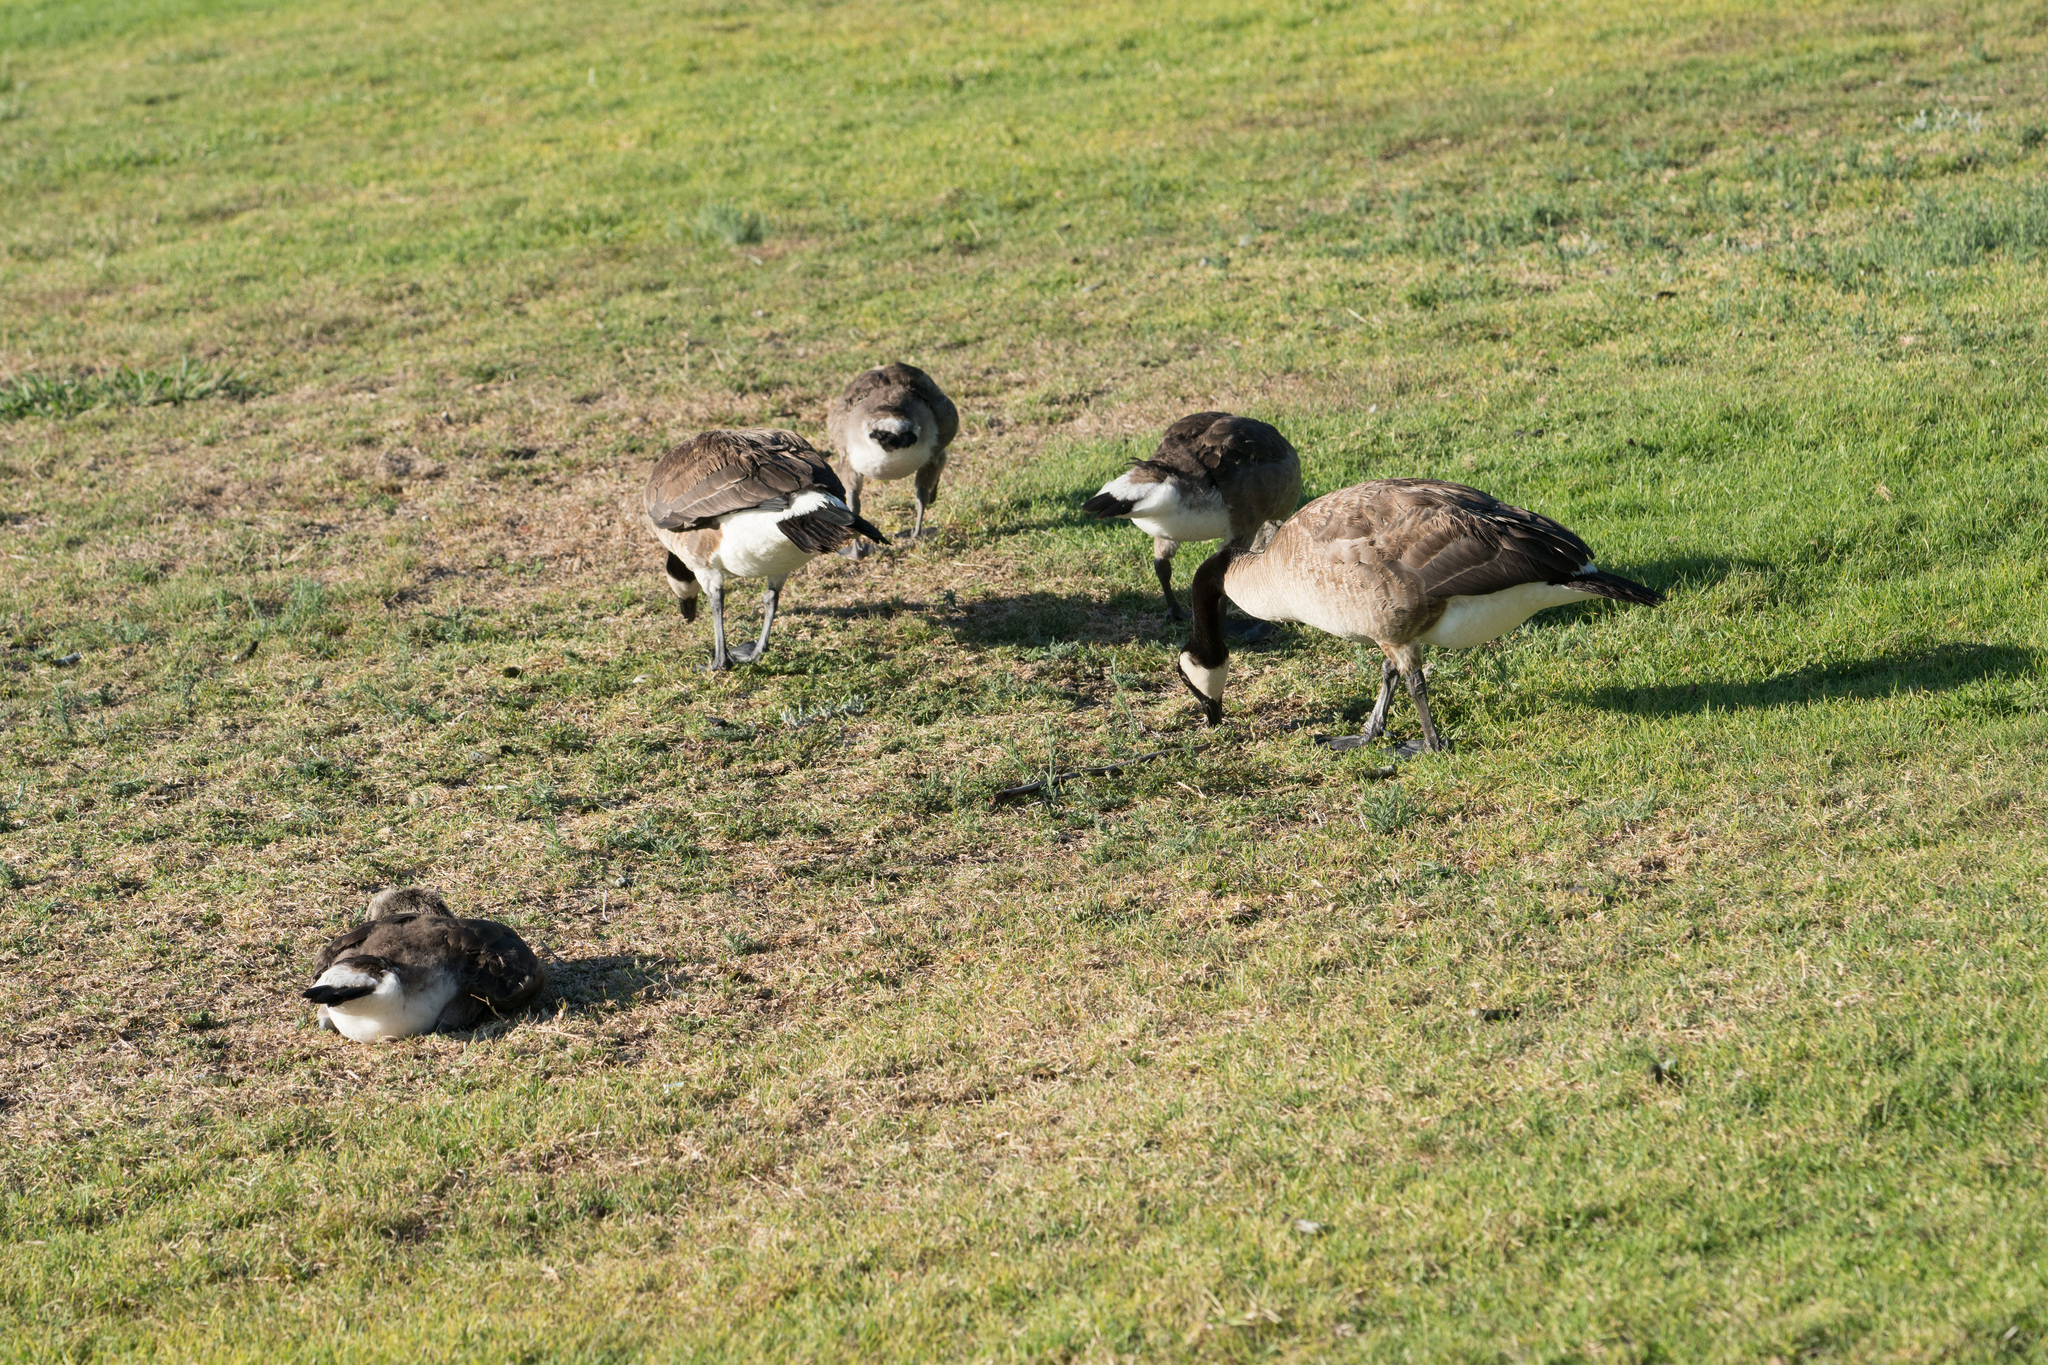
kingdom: Animalia
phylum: Chordata
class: Aves
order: Anseriformes
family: Anatidae
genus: Branta
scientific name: Branta canadensis
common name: Canada goose
